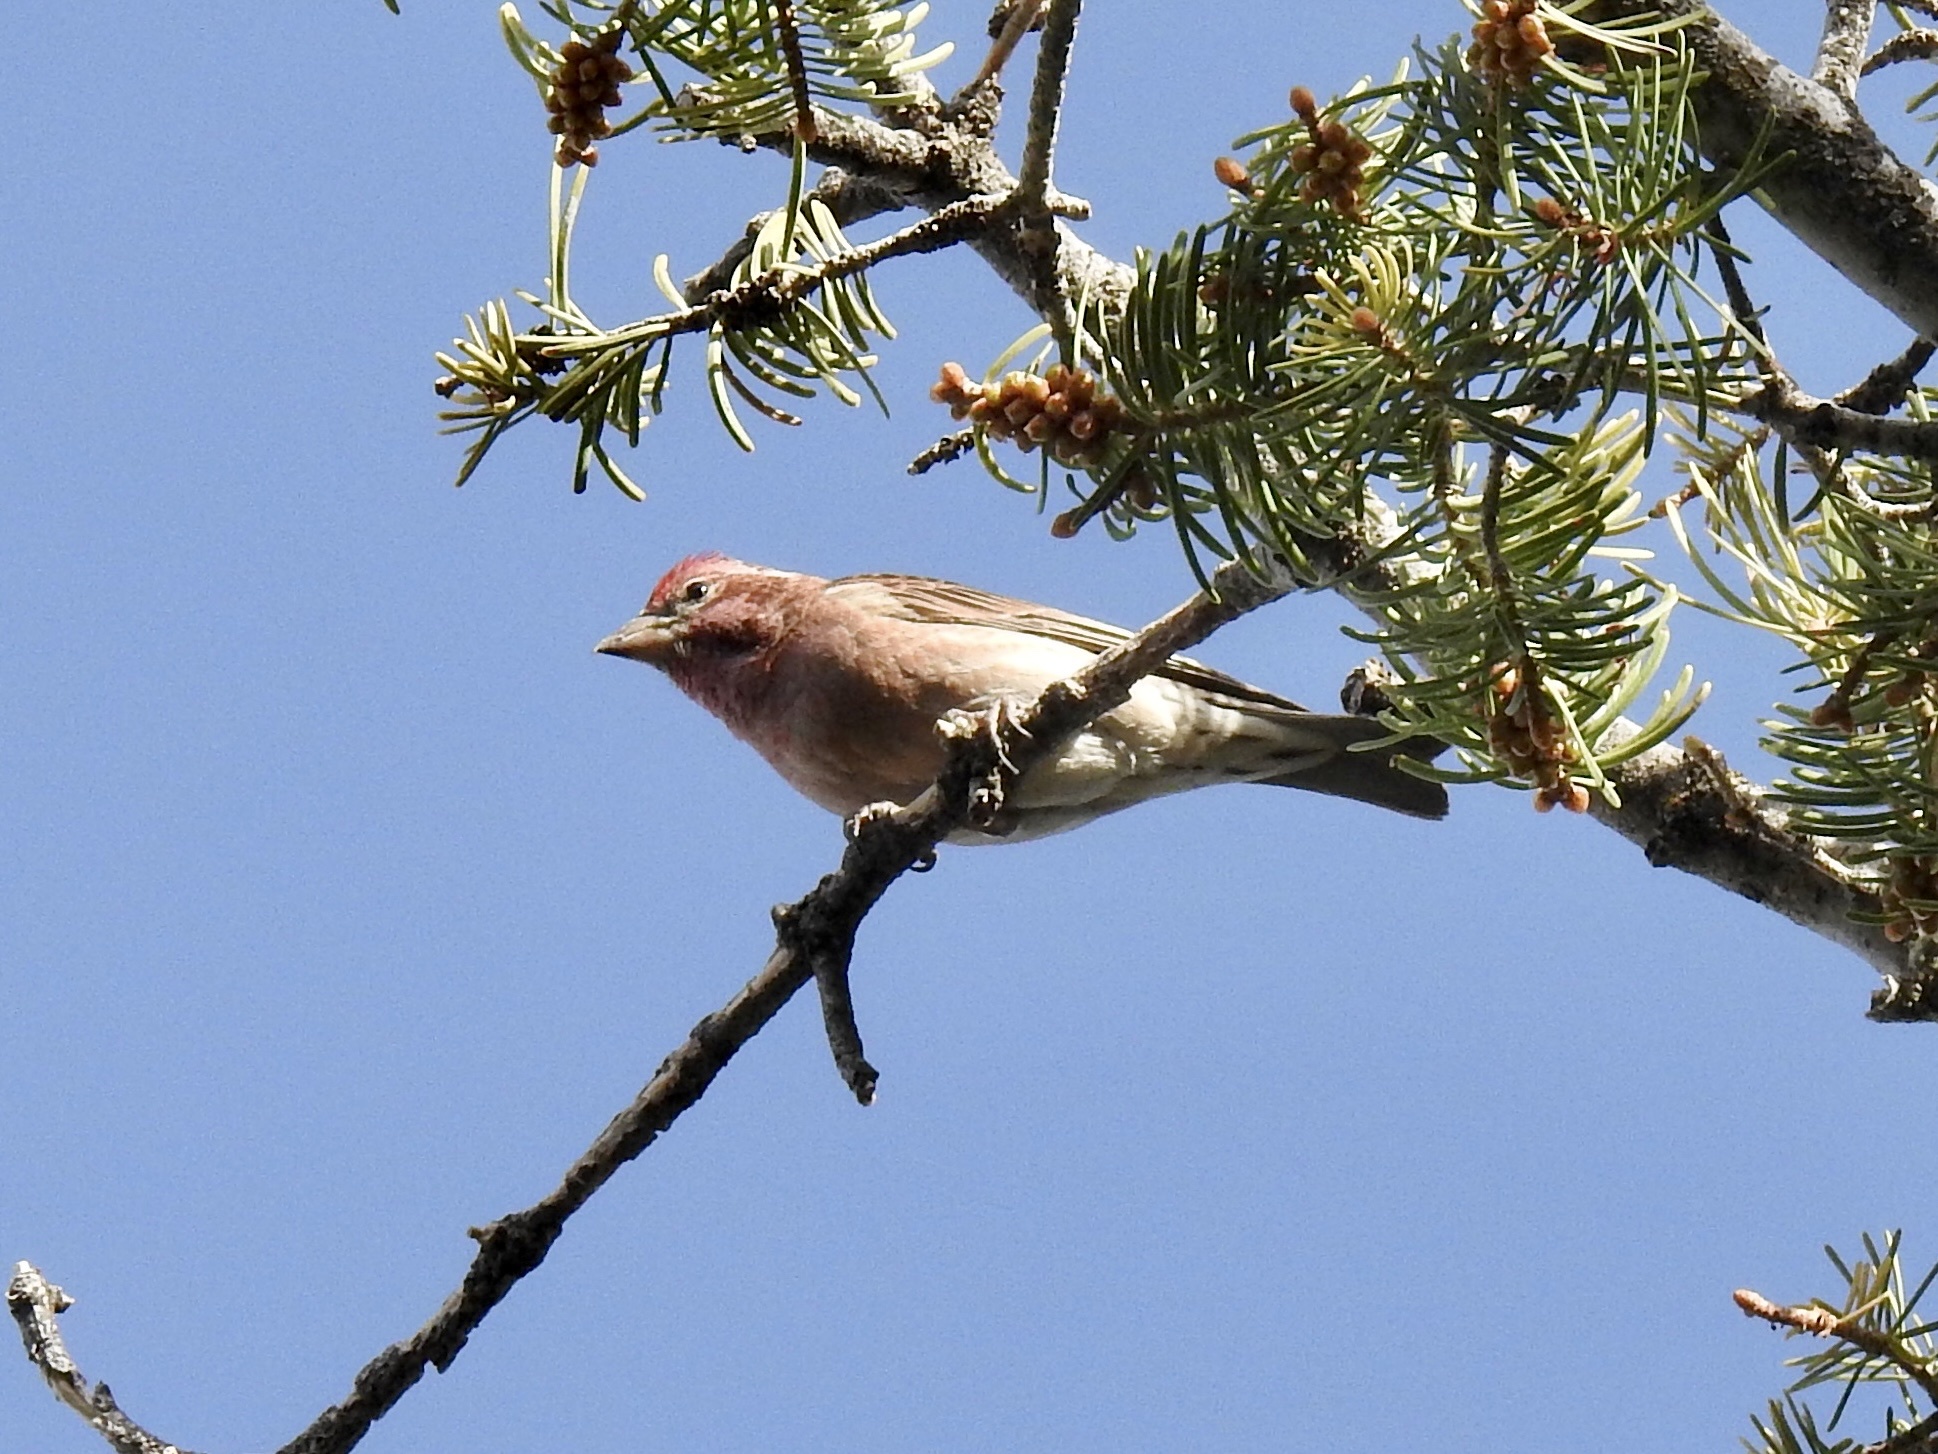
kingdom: Animalia
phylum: Chordata
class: Aves
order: Passeriformes
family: Fringillidae
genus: Haemorhous
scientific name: Haemorhous cassinii
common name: Cassin's finch
